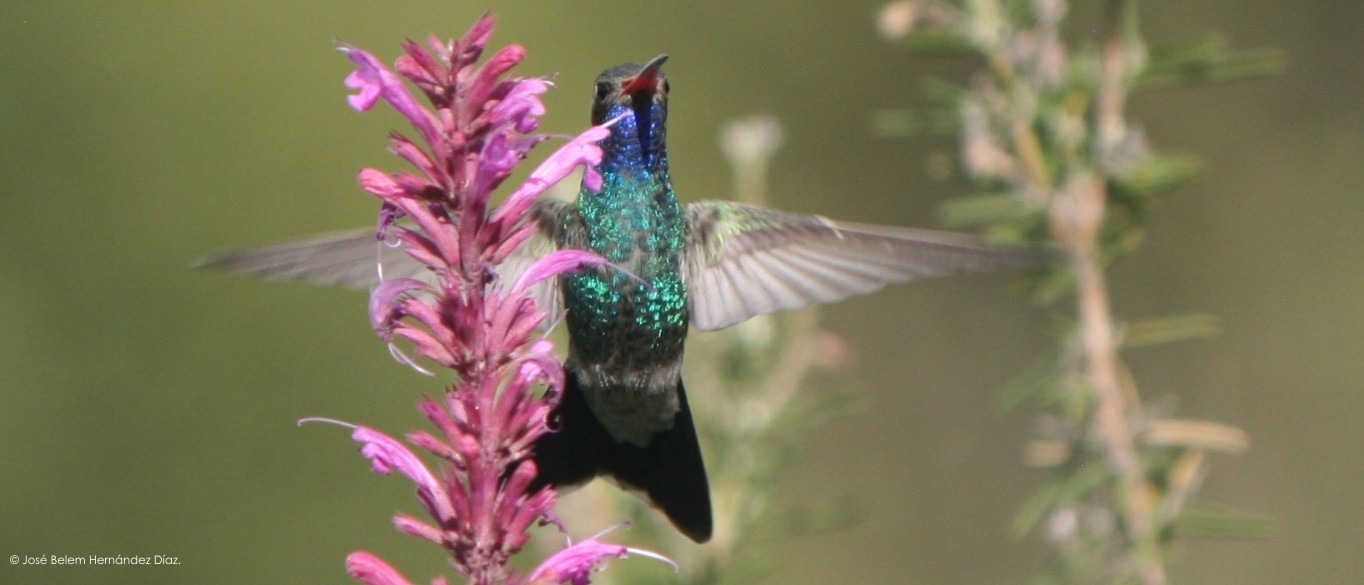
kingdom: Animalia
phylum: Chordata
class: Aves
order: Apodiformes
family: Trochilidae
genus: Cynanthus
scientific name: Cynanthus latirostris
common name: Broad-billed hummingbird
